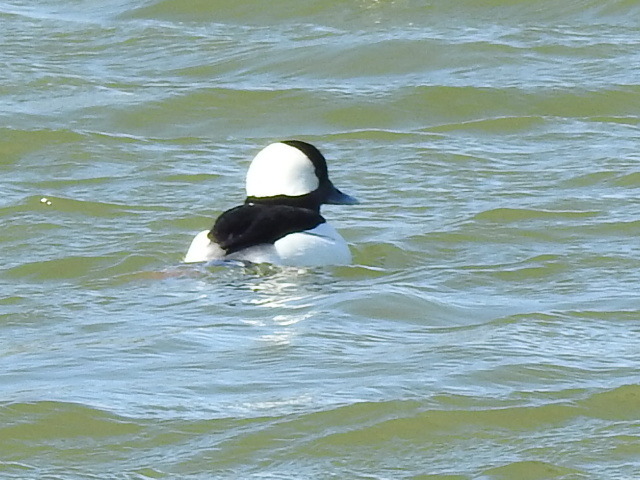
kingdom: Animalia
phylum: Chordata
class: Aves
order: Anseriformes
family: Anatidae
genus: Bucephala
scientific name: Bucephala albeola
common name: Bufflehead
